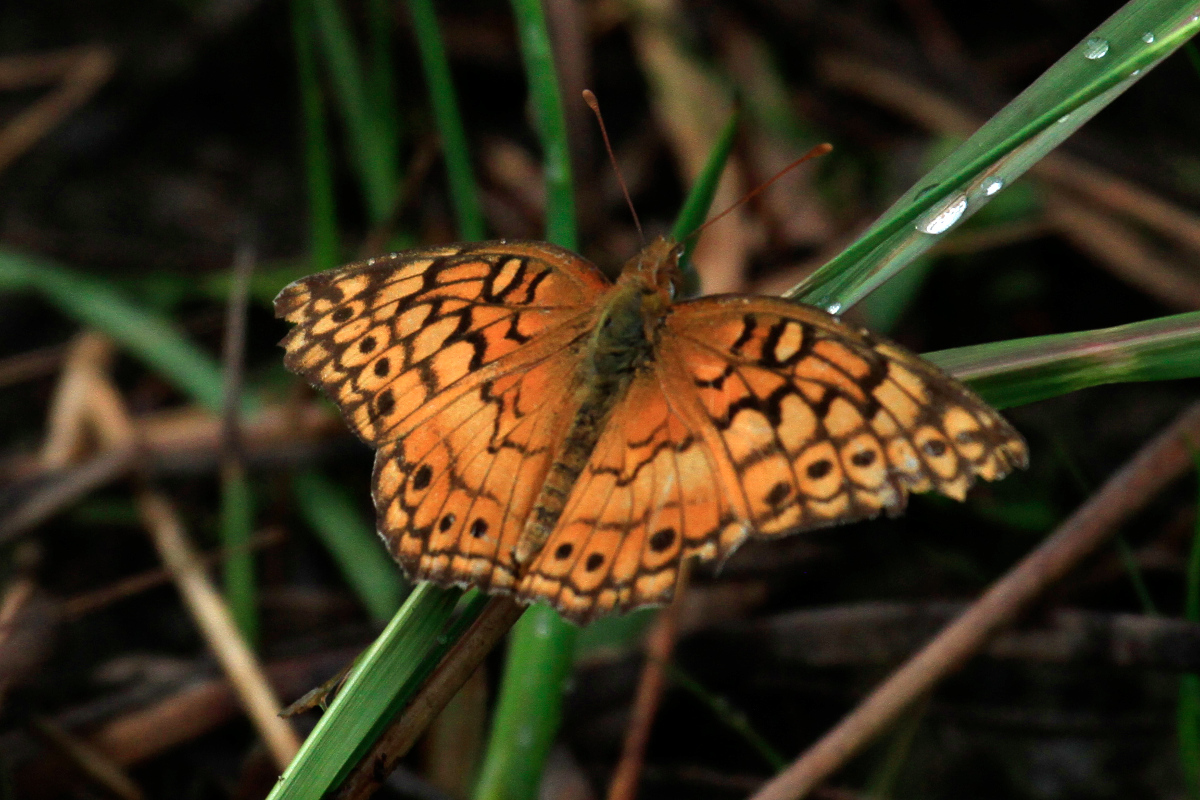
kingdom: Animalia
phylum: Arthropoda
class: Insecta
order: Lepidoptera
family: Nymphalidae
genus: Euptoieta
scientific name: Euptoieta claudia
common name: Variegated fritillary
